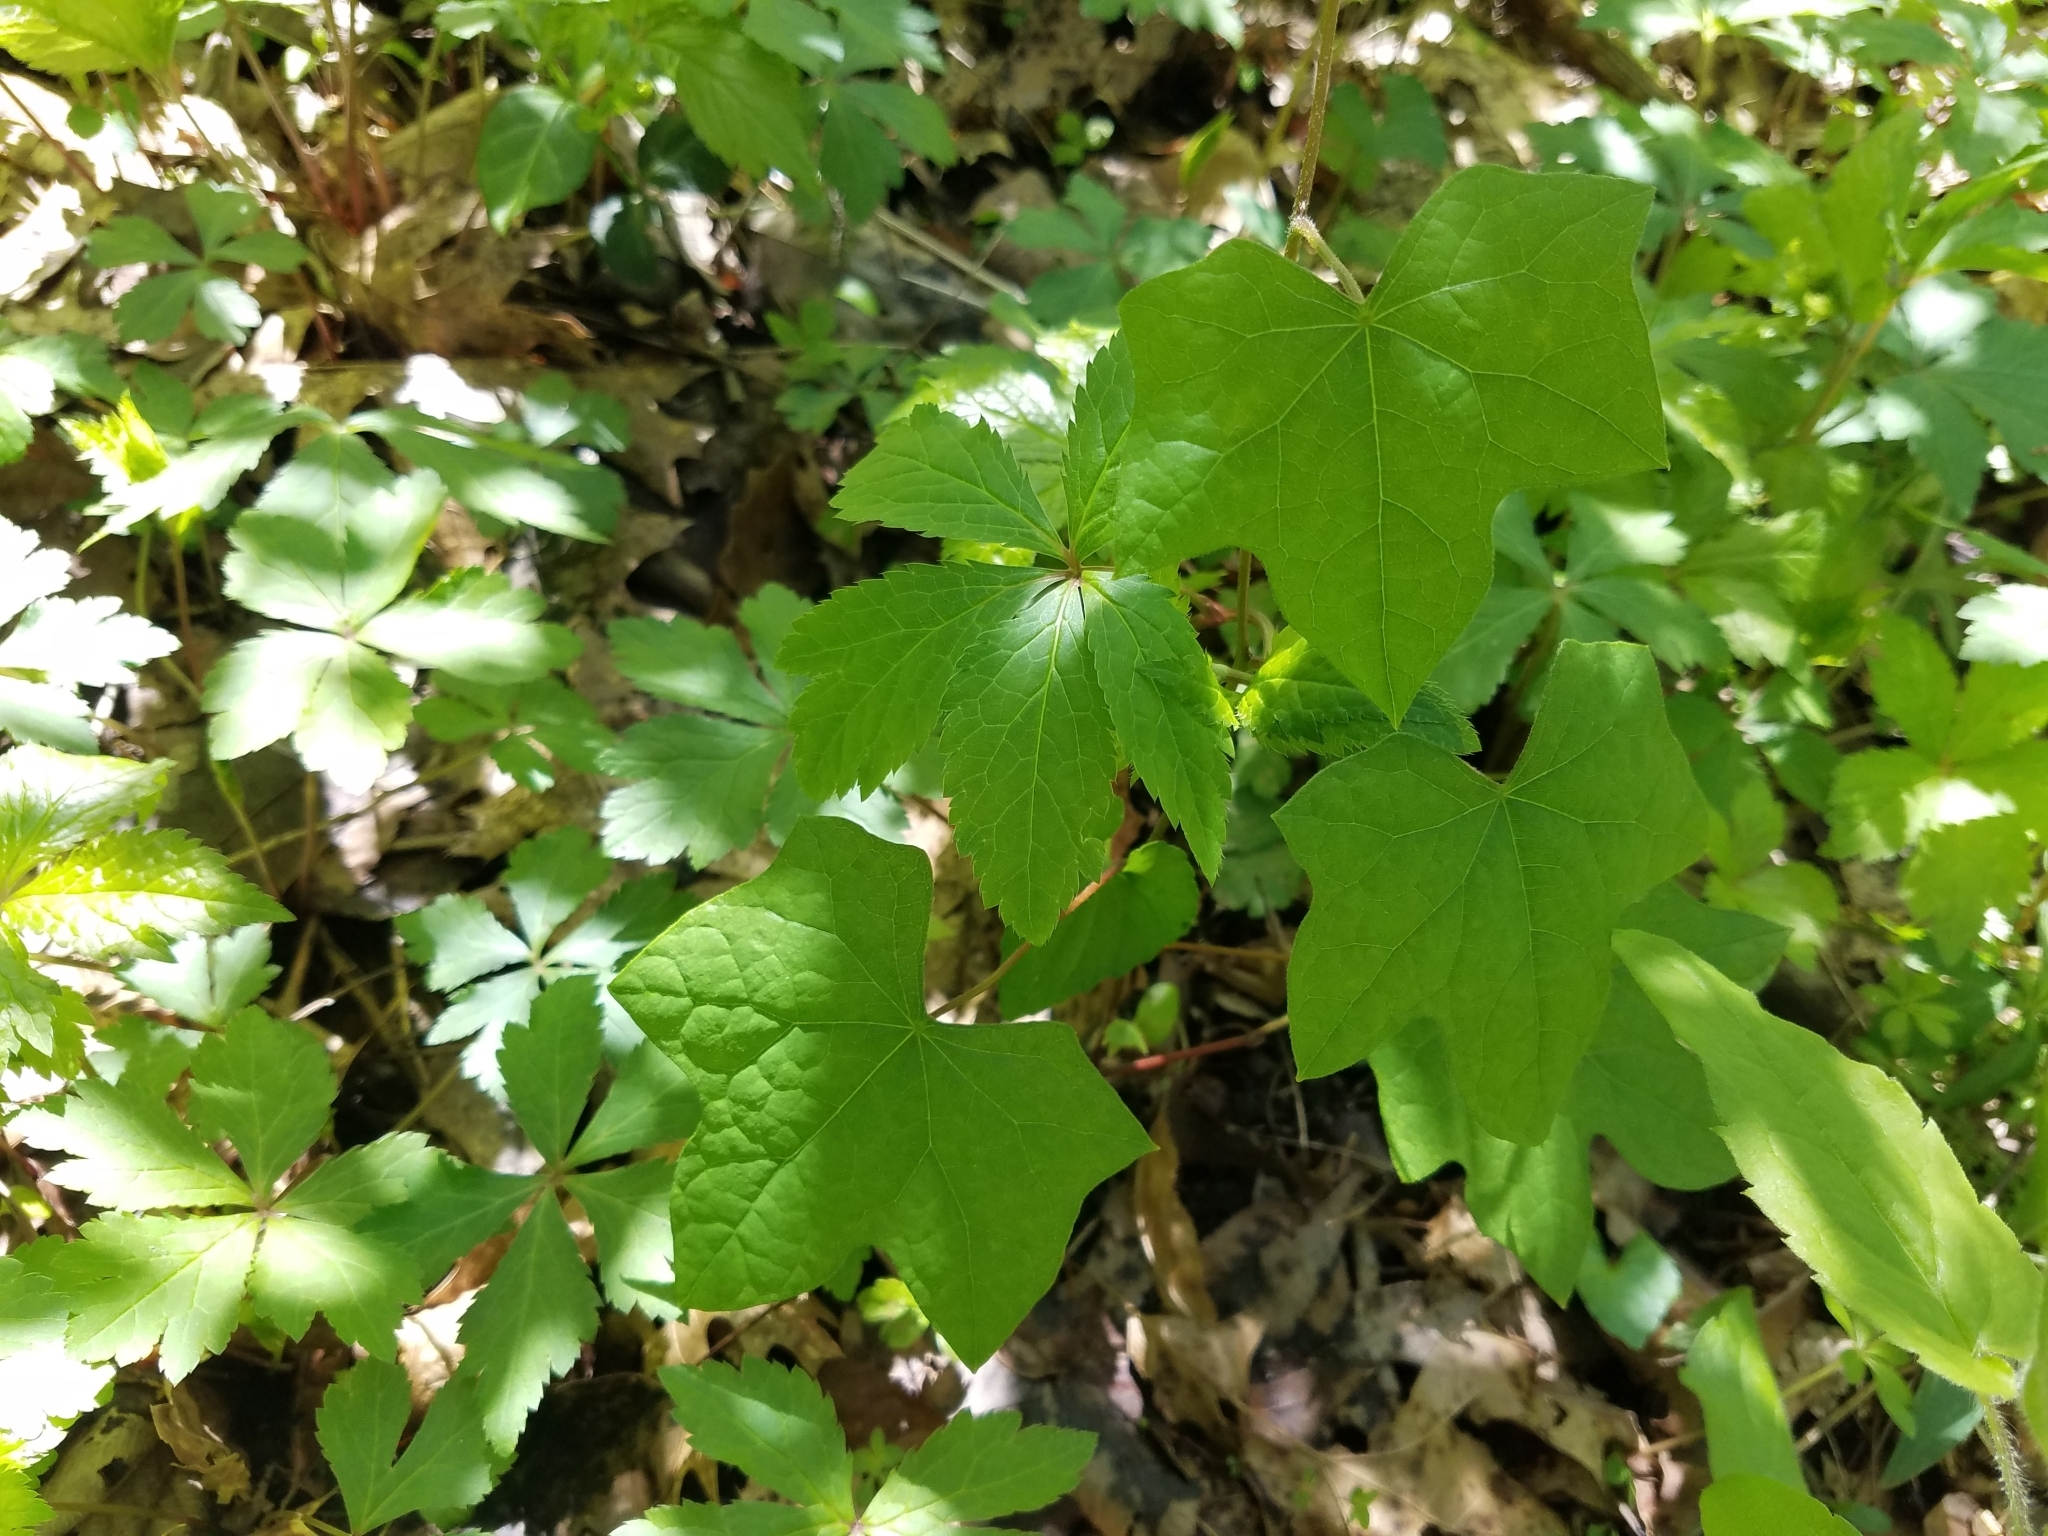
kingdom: Plantae
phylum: Tracheophyta
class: Magnoliopsida
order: Ranunculales
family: Menispermaceae
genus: Menispermum
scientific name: Menispermum canadense
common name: Moonseed
